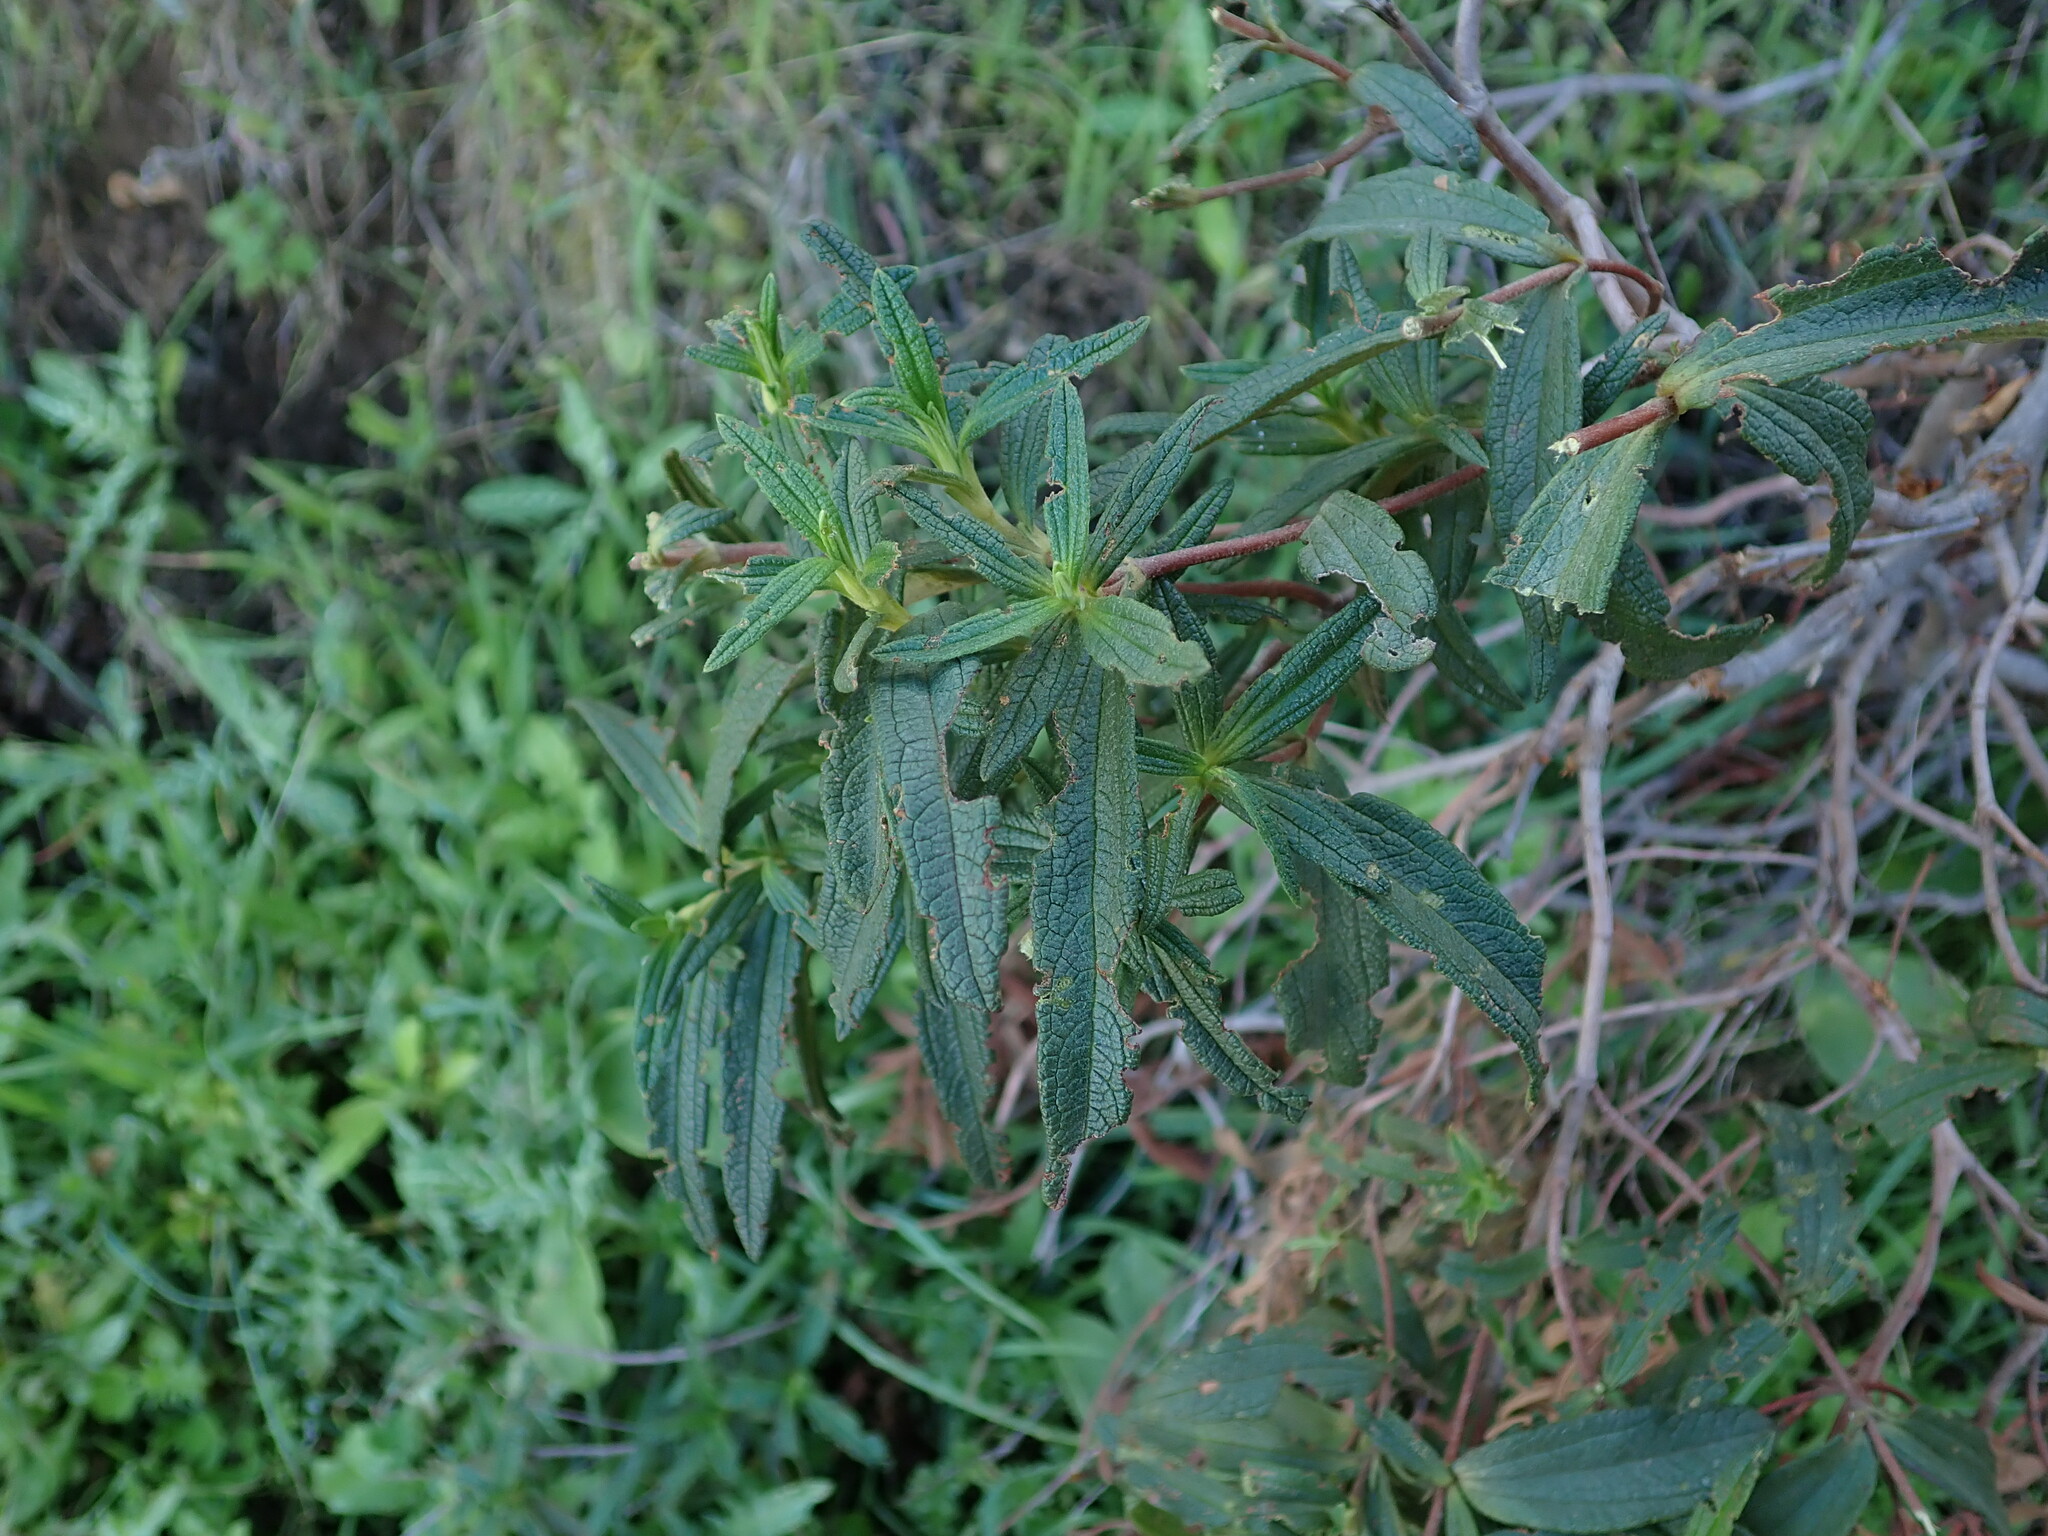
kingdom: Plantae
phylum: Tracheophyta
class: Magnoliopsida
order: Malvales
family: Cistaceae
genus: Cistus
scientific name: Cistus monspeliensis
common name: Montpelier cistus
